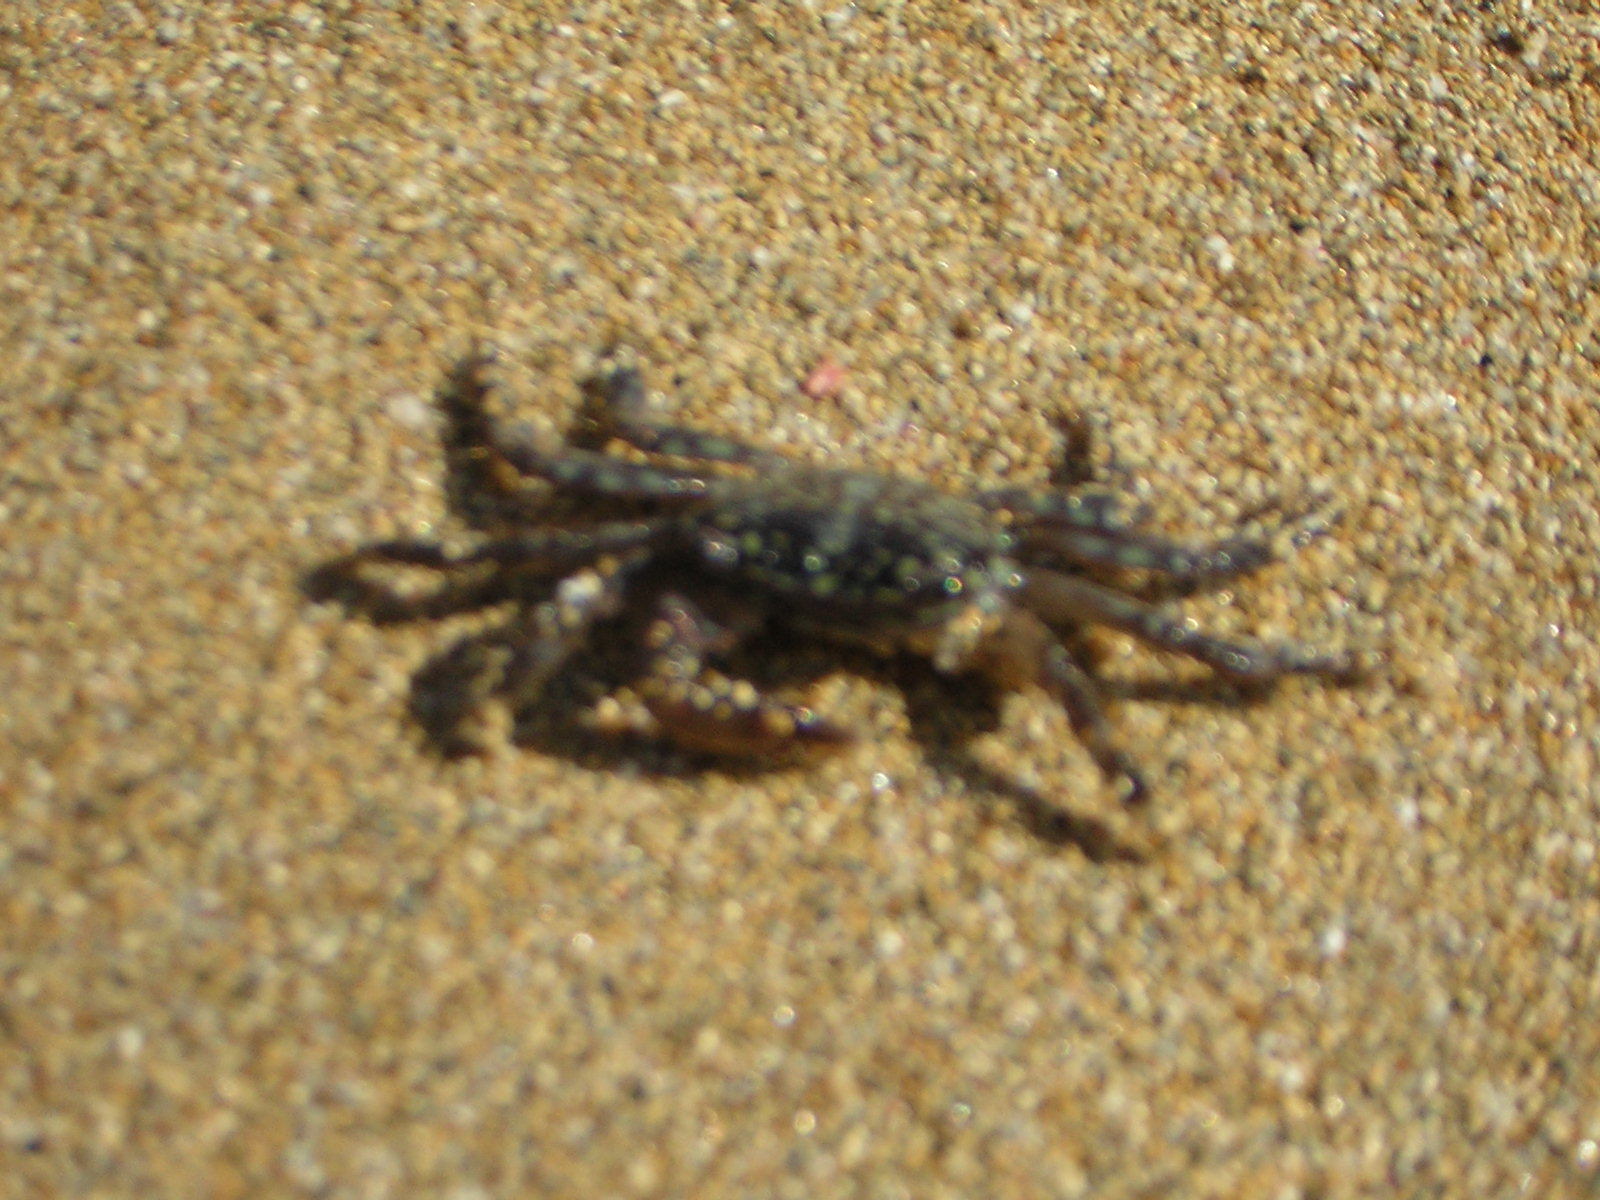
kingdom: Animalia
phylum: Arthropoda
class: Malacostraca
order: Decapoda
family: Grapsidae
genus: Pachygrapsus
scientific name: Pachygrapsus marmoratus
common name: Marbled rock crab
